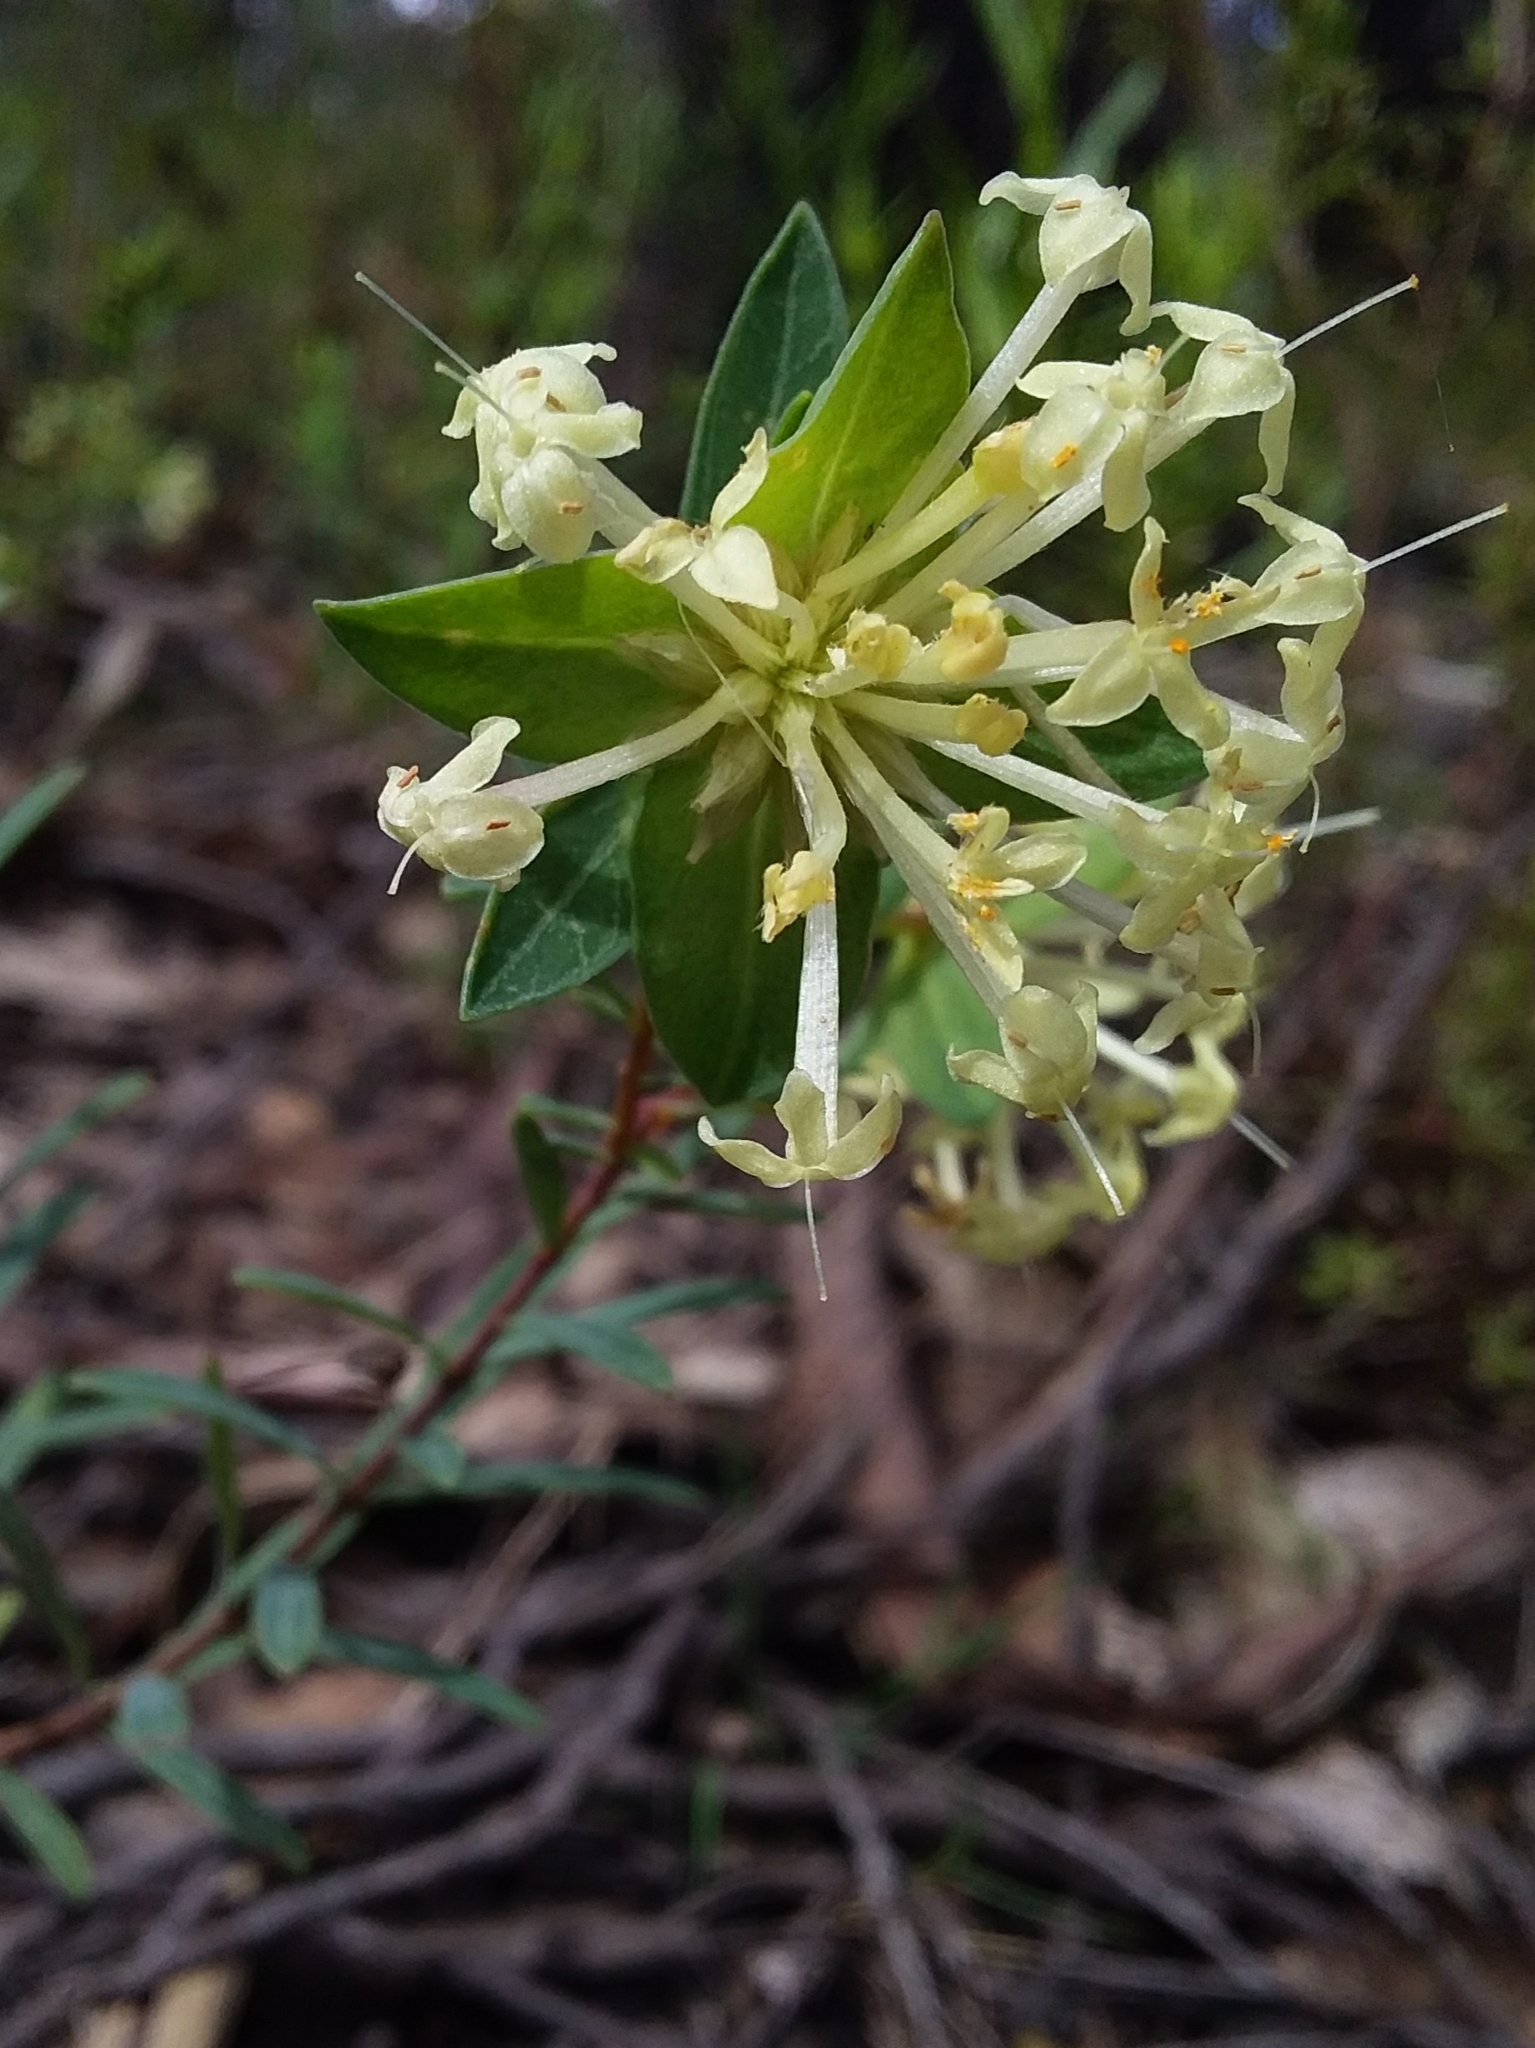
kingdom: Plantae
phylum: Tracheophyta
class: Magnoliopsida
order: Malvales
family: Thymelaeaceae
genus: Pimelea
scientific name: Pimelea linifolia
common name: Queen-of-the-bush
